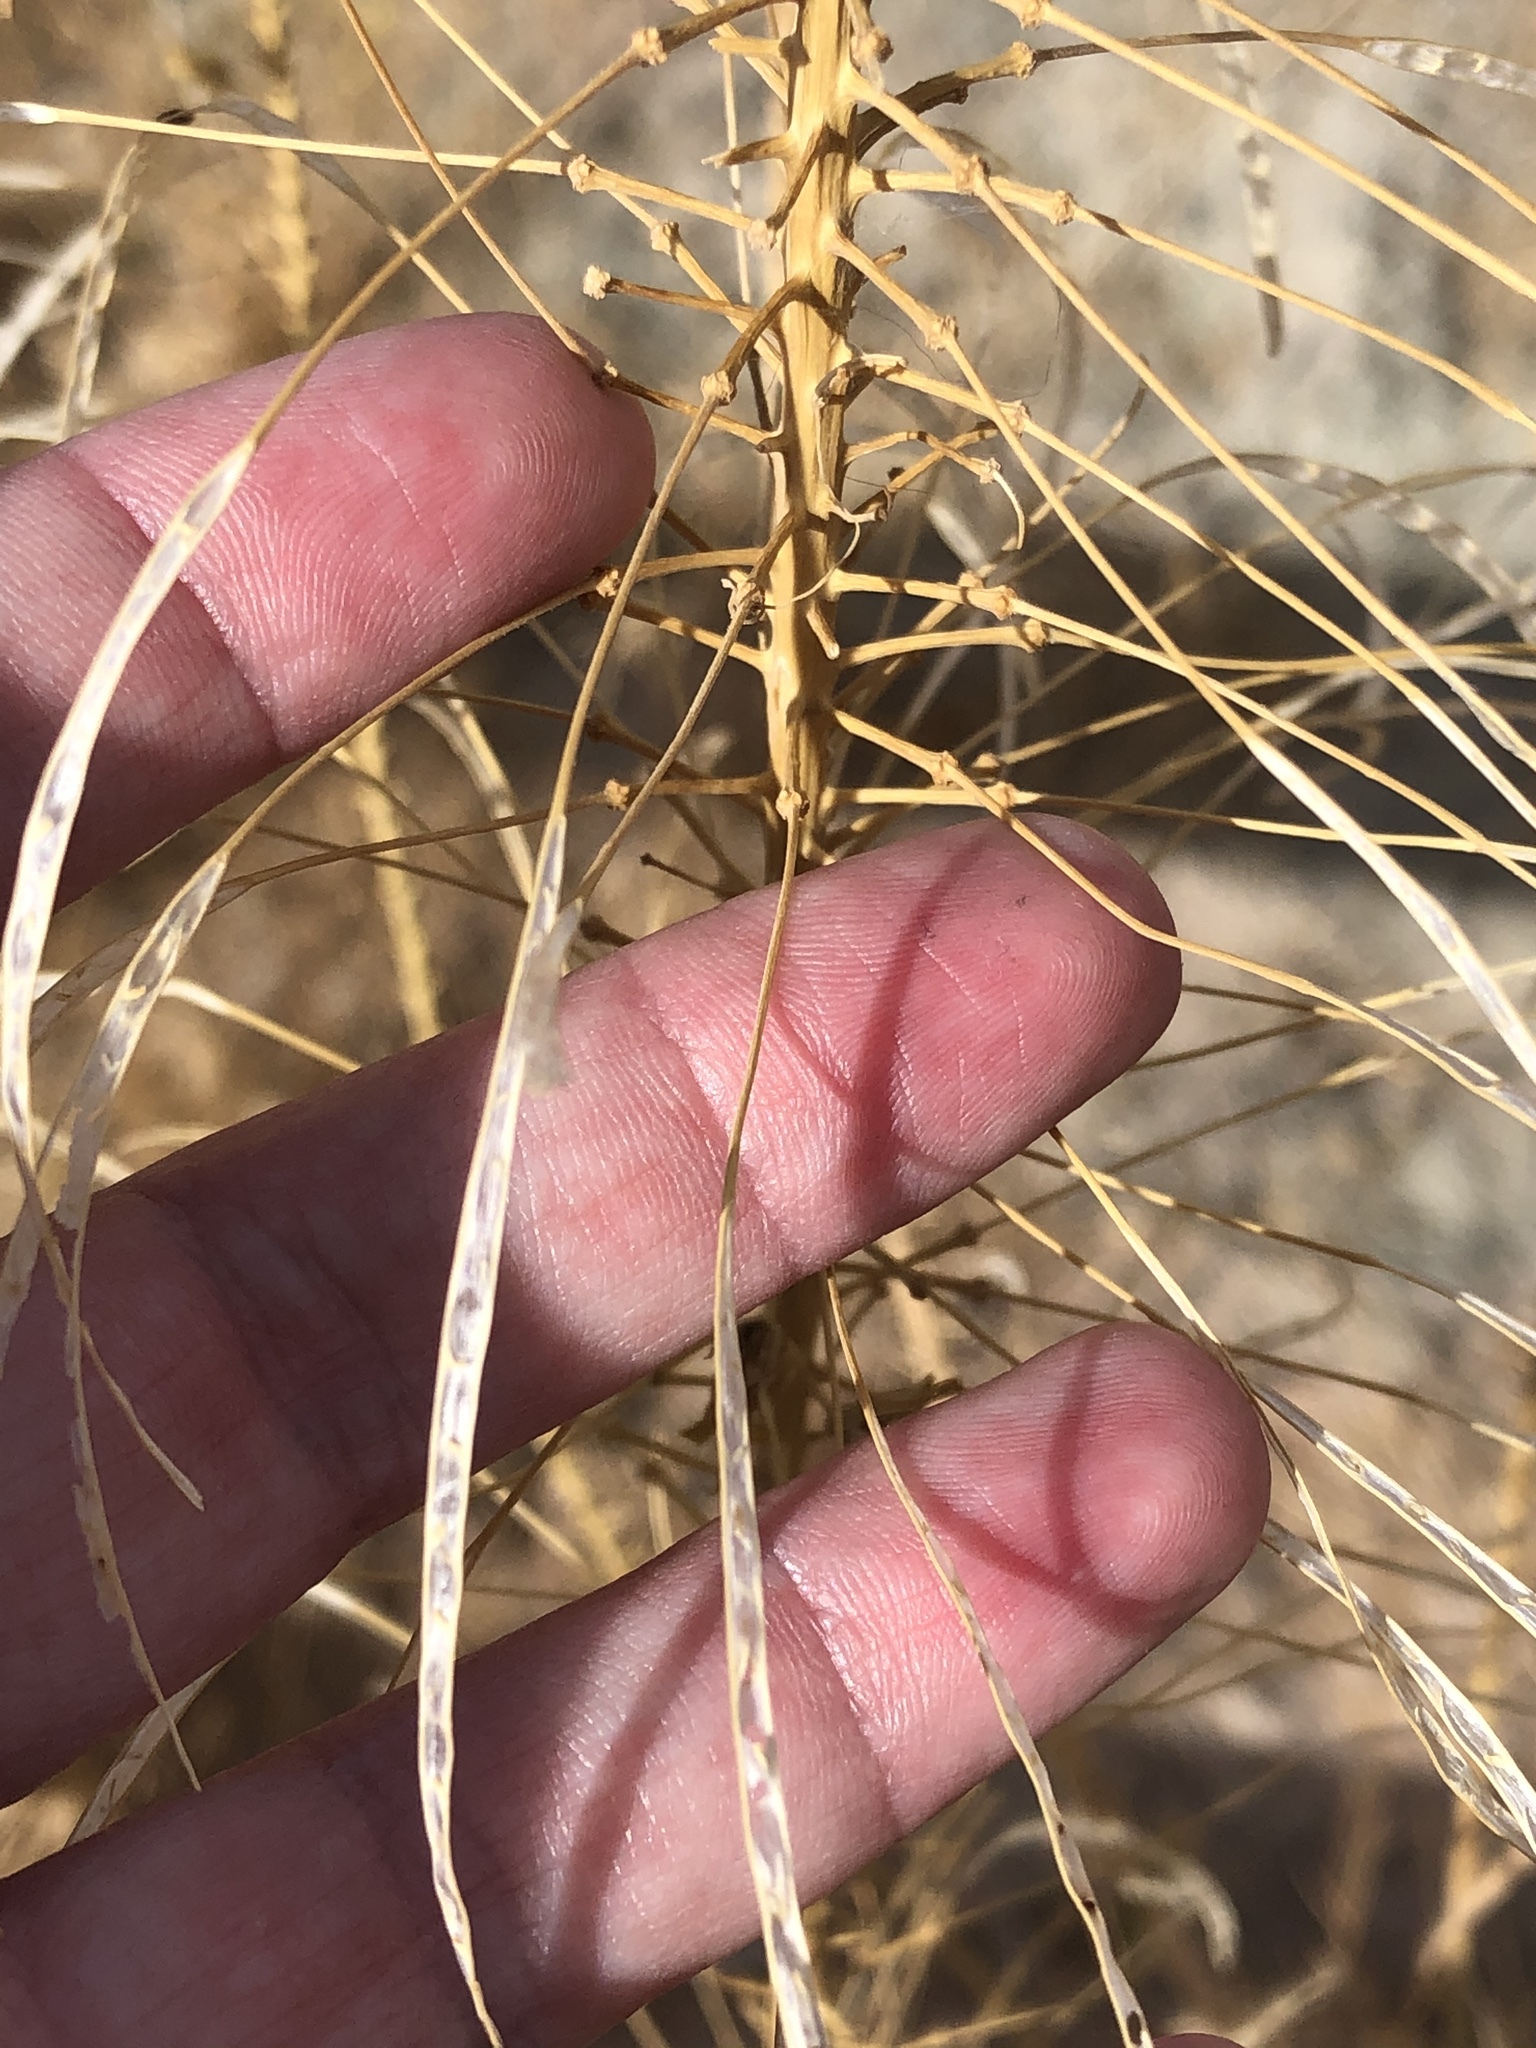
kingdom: Plantae
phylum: Tracheophyta
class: Magnoliopsida
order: Brassicales
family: Brassicaceae
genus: Stanleya
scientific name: Stanleya pinnata
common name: Prince's-plume
